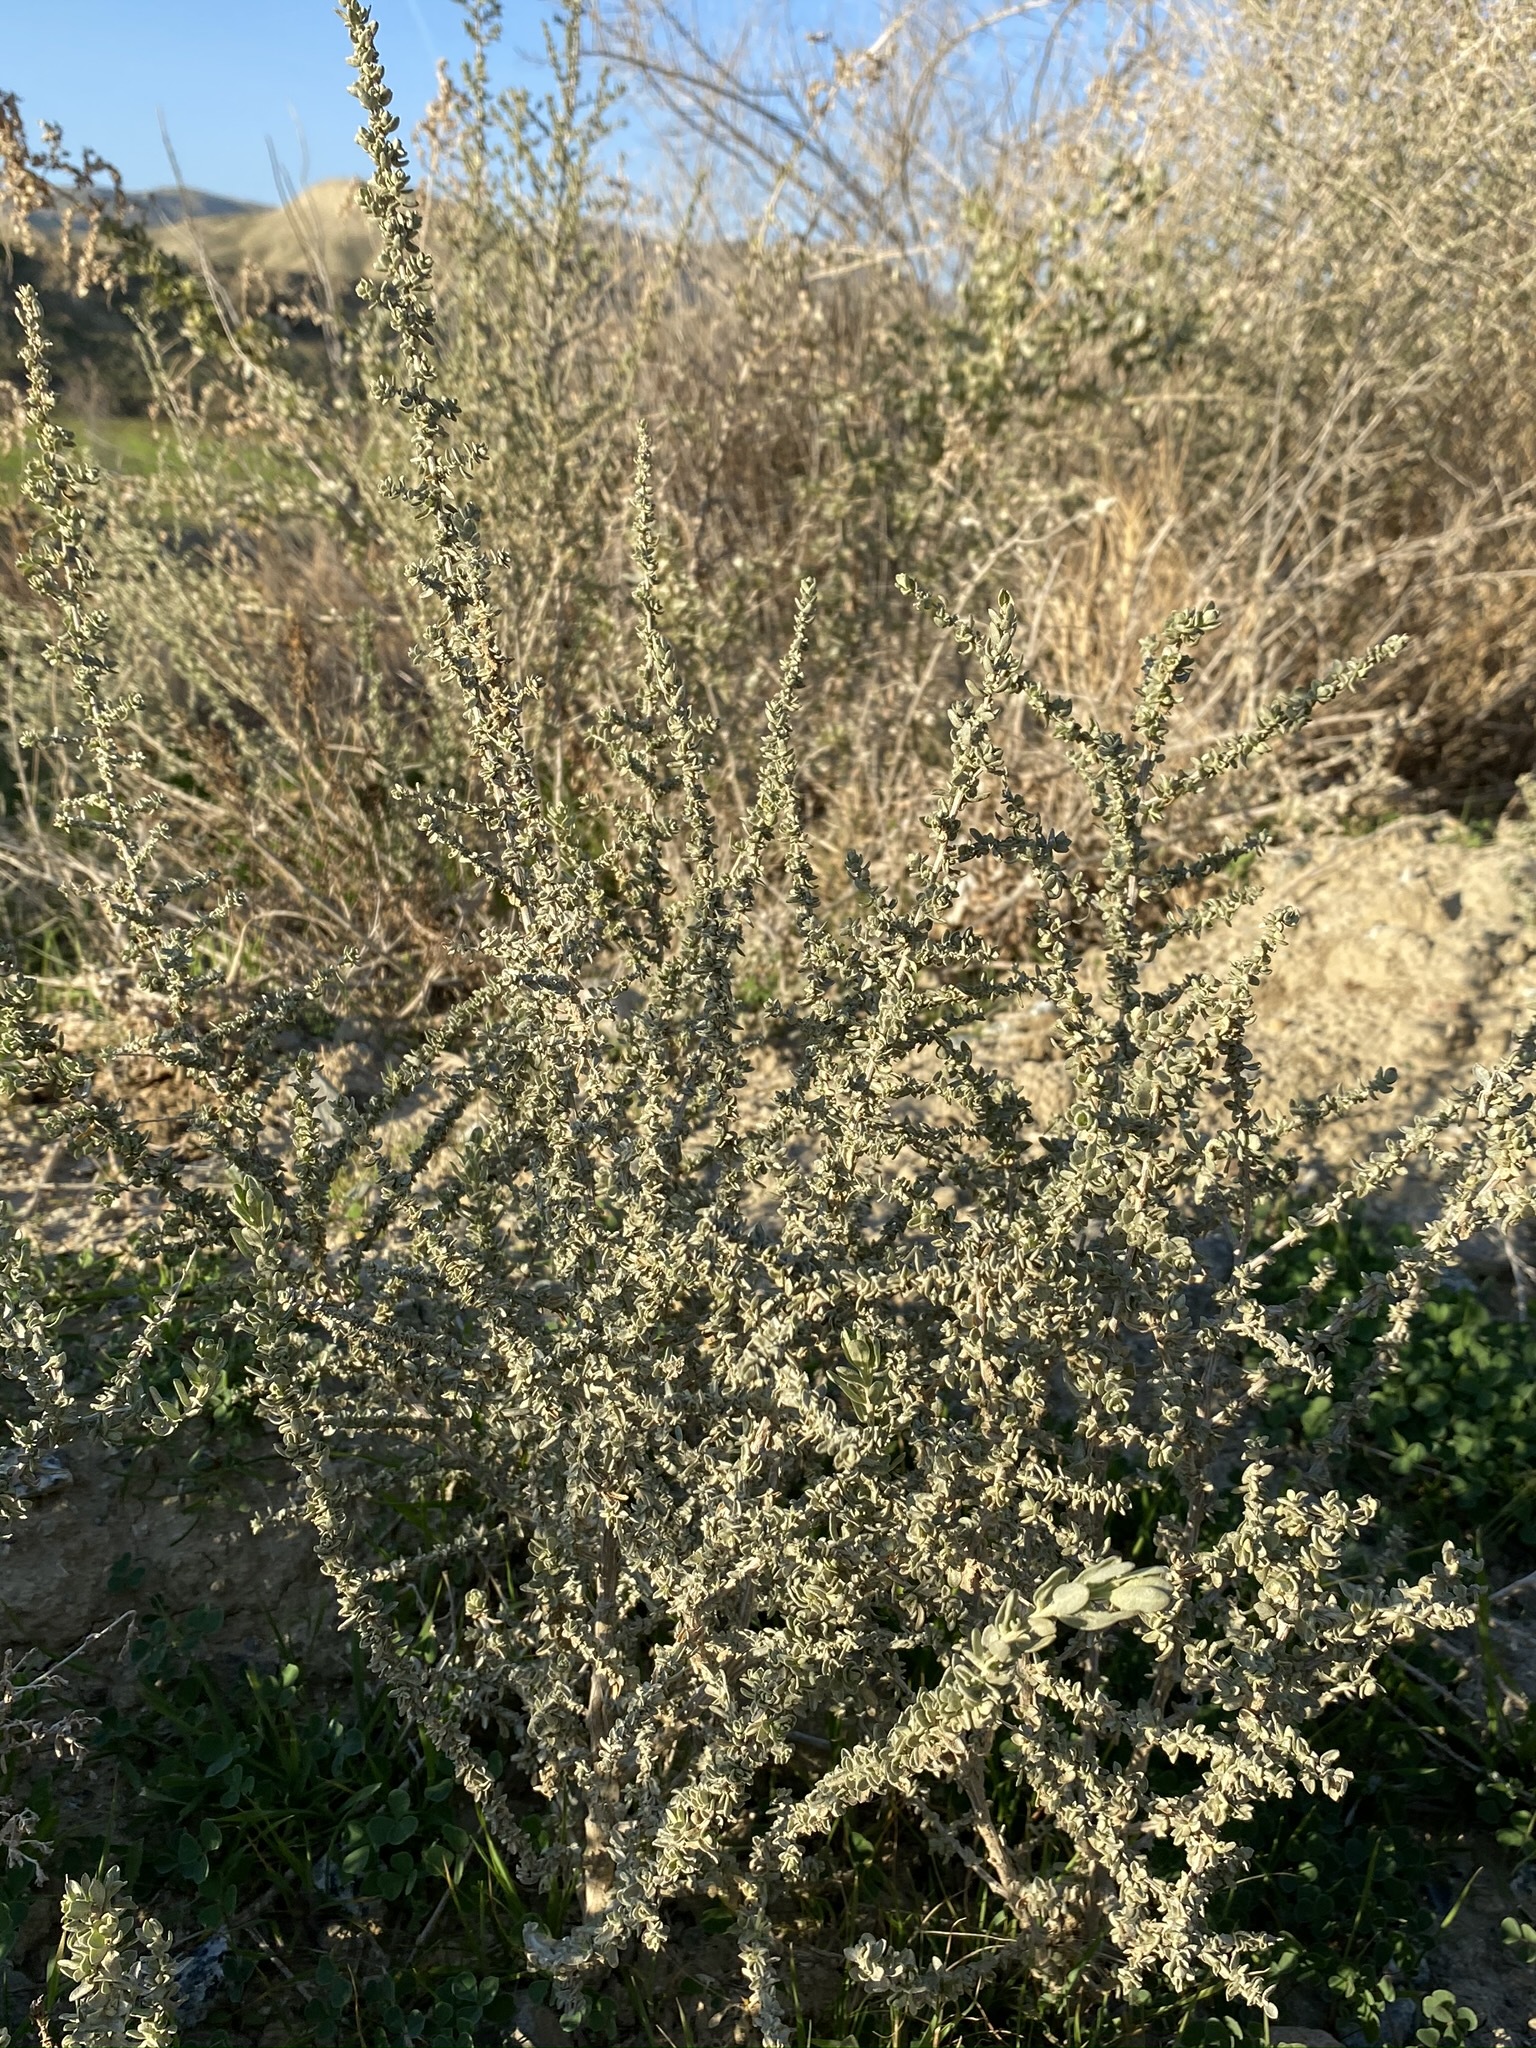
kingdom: Plantae
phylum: Tracheophyta
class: Magnoliopsida
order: Caryophyllales
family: Amaranthaceae
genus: Atriplex
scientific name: Atriplex polycarpa
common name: Desert saltbush
